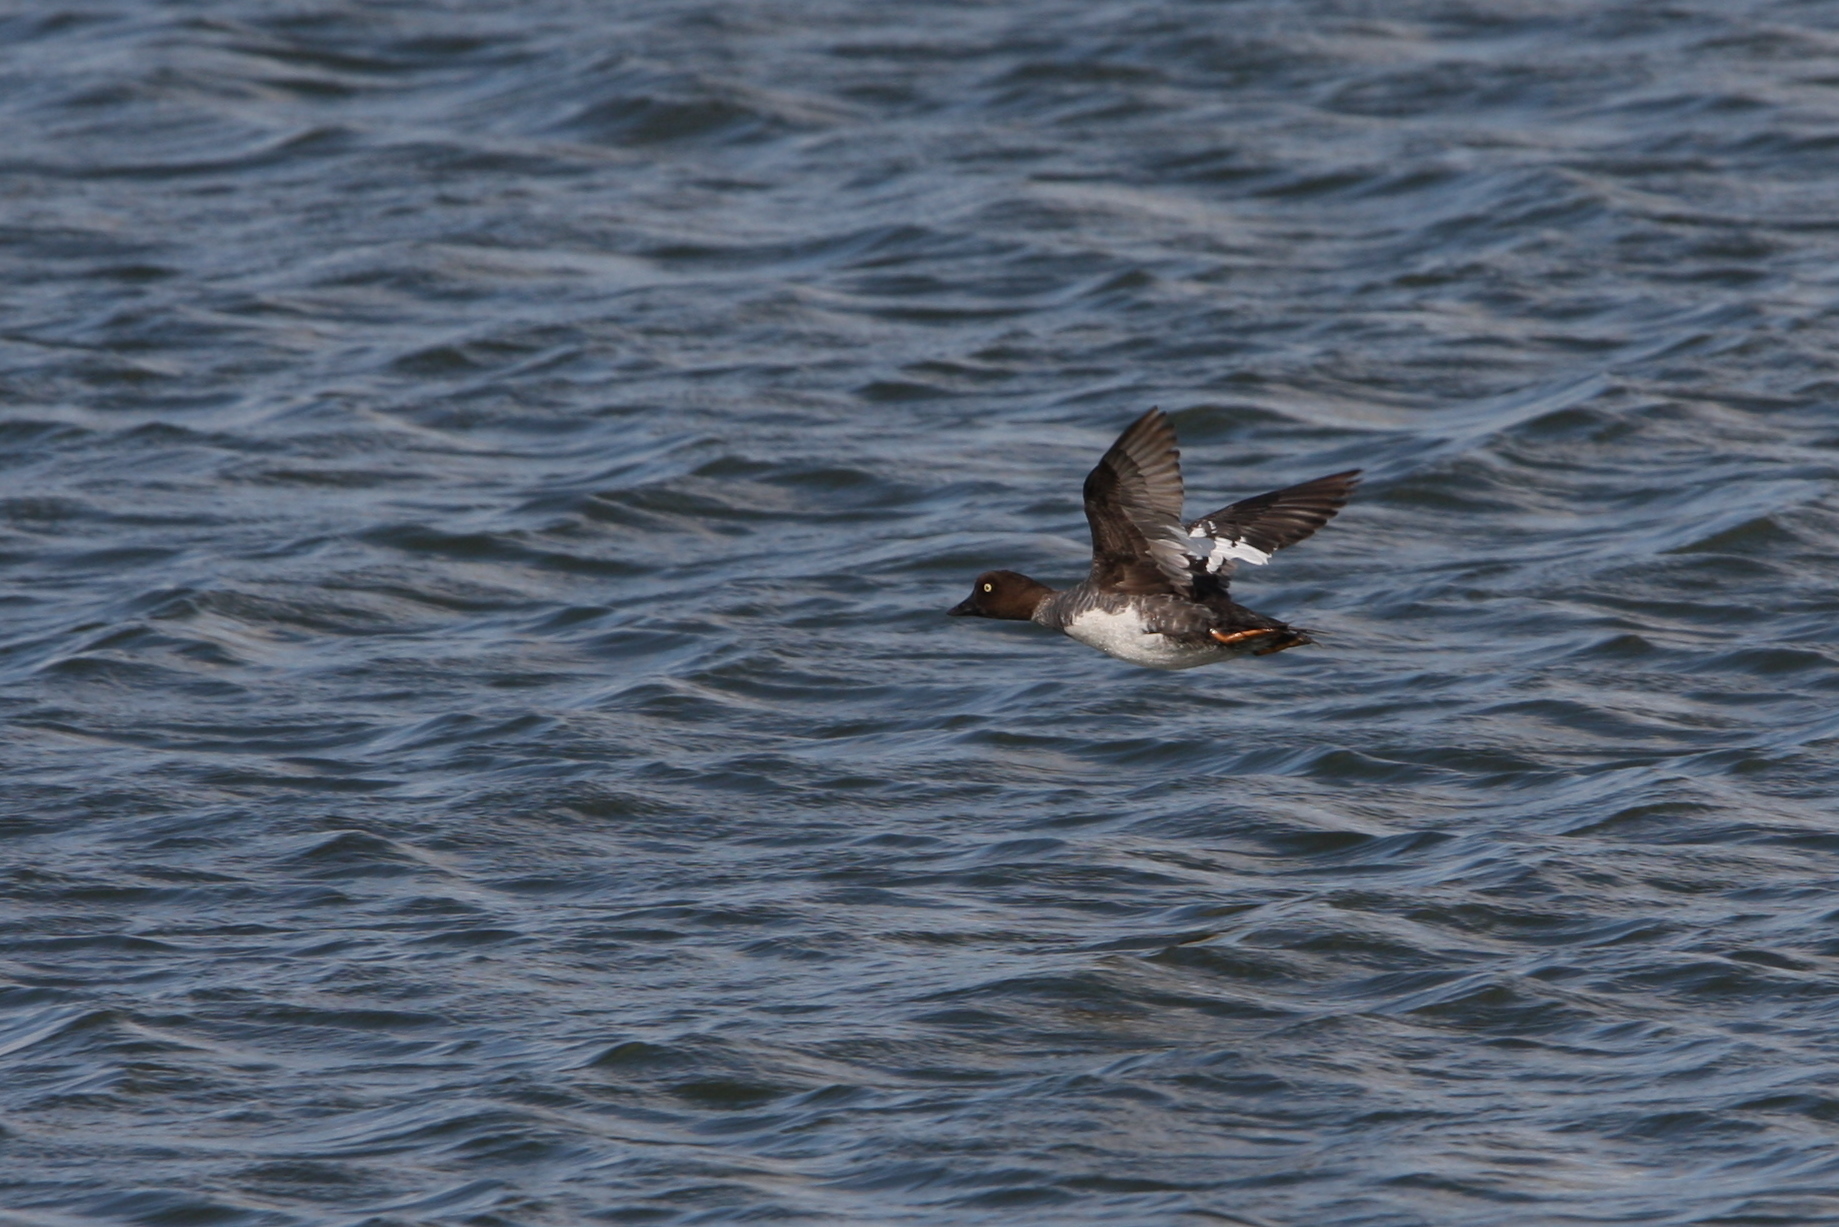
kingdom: Animalia
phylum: Chordata
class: Aves
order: Anseriformes
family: Anatidae
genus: Bucephala
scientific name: Bucephala clangula
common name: Common goldeneye
